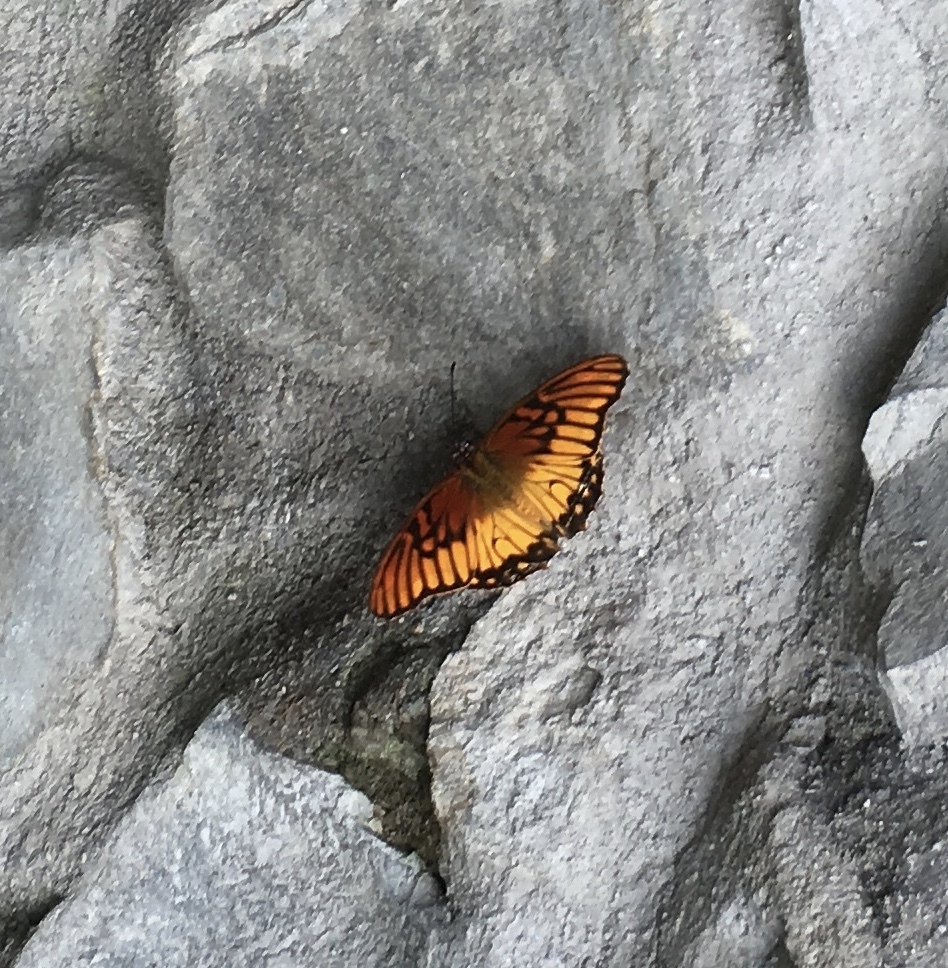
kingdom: Animalia
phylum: Arthropoda
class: Insecta
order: Lepidoptera
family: Nymphalidae
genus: Dione
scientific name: Dione moneta
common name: Mexican silverspot
